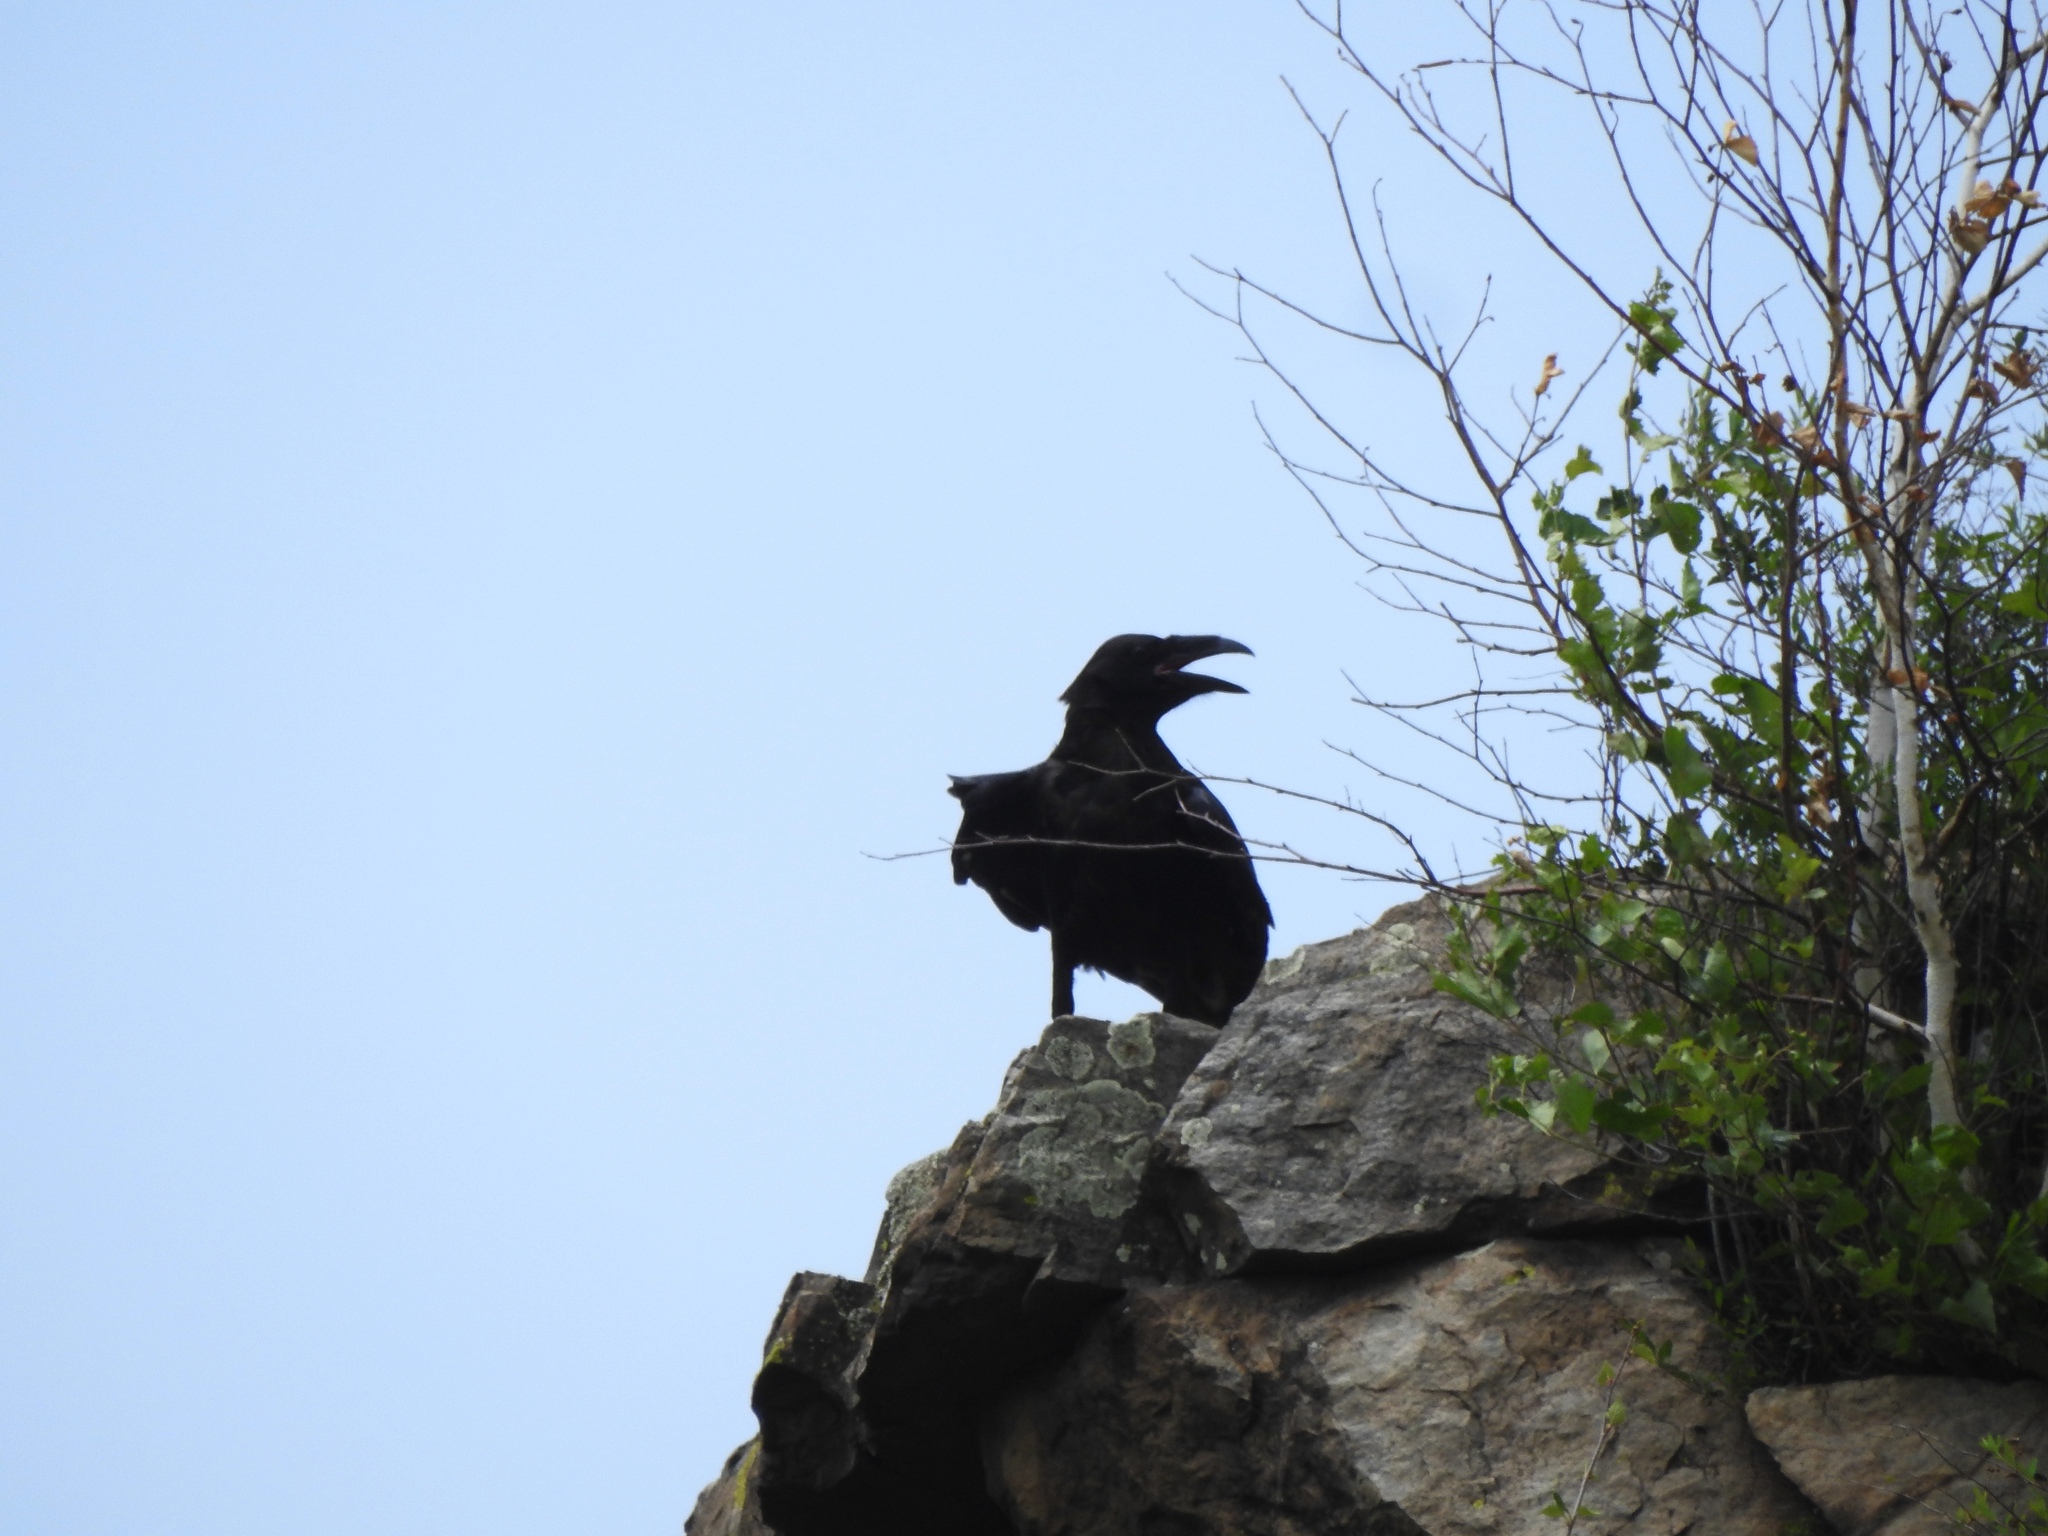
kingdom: Animalia
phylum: Chordata
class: Aves
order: Passeriformes
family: Corvidae
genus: Corvus
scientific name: Corvus corax
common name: Common raven
